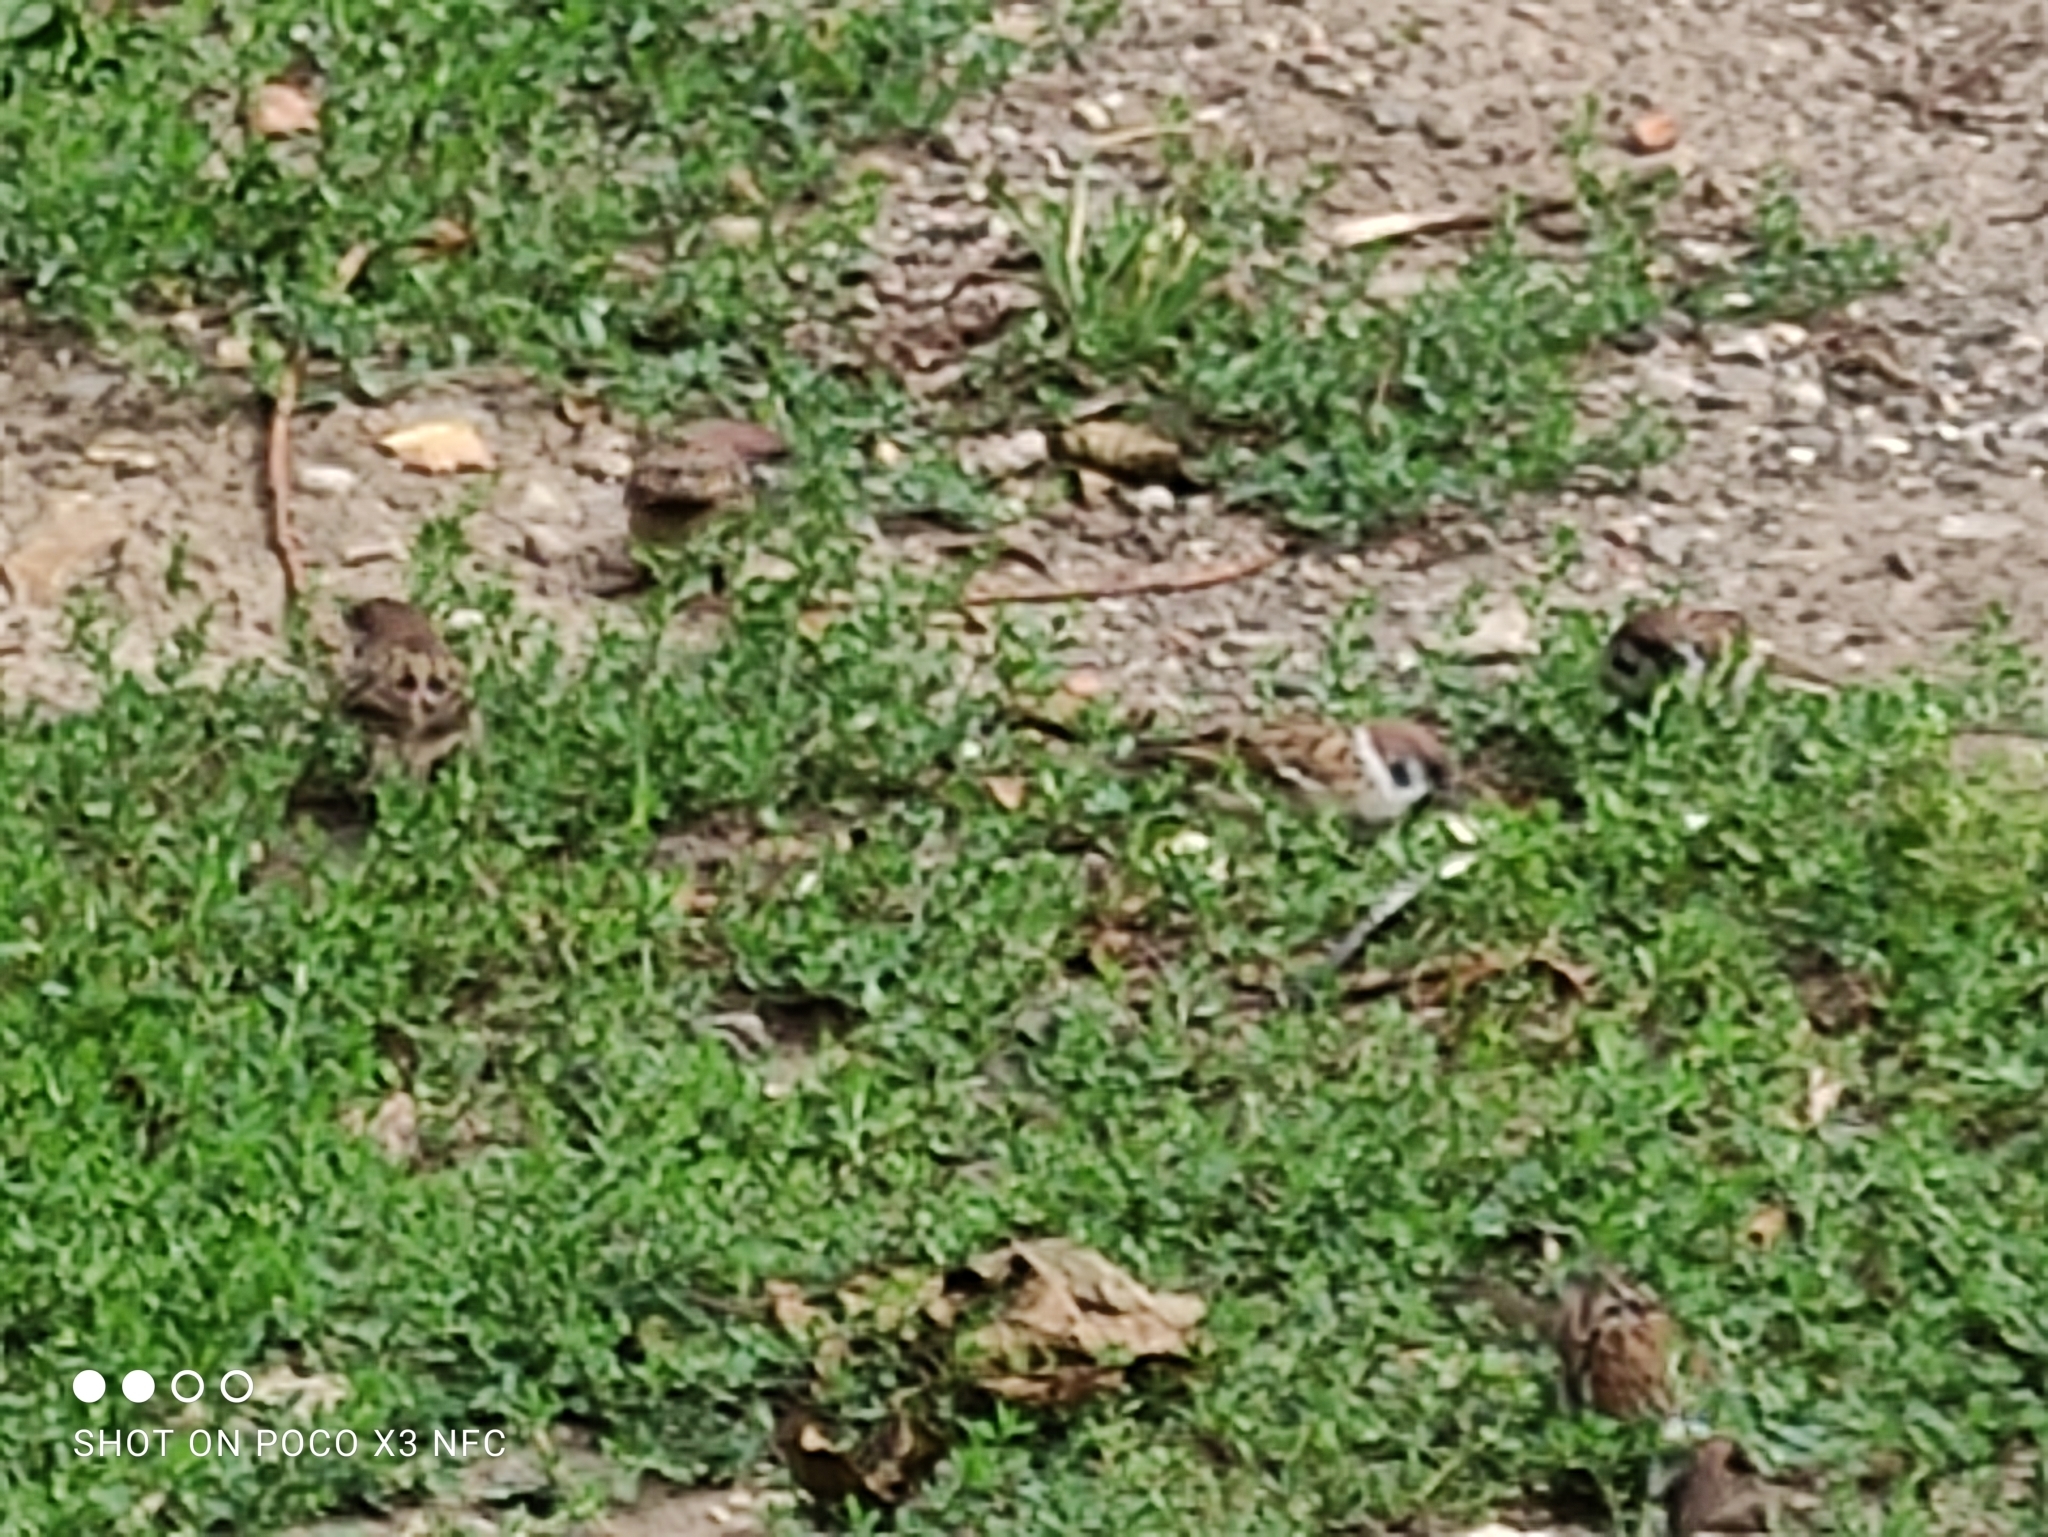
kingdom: Animalia
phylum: Chordata
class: Aves
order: Passeriformes
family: Passeridae
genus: Passer
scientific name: Passer montanus
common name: Eurasian tree sparrow
